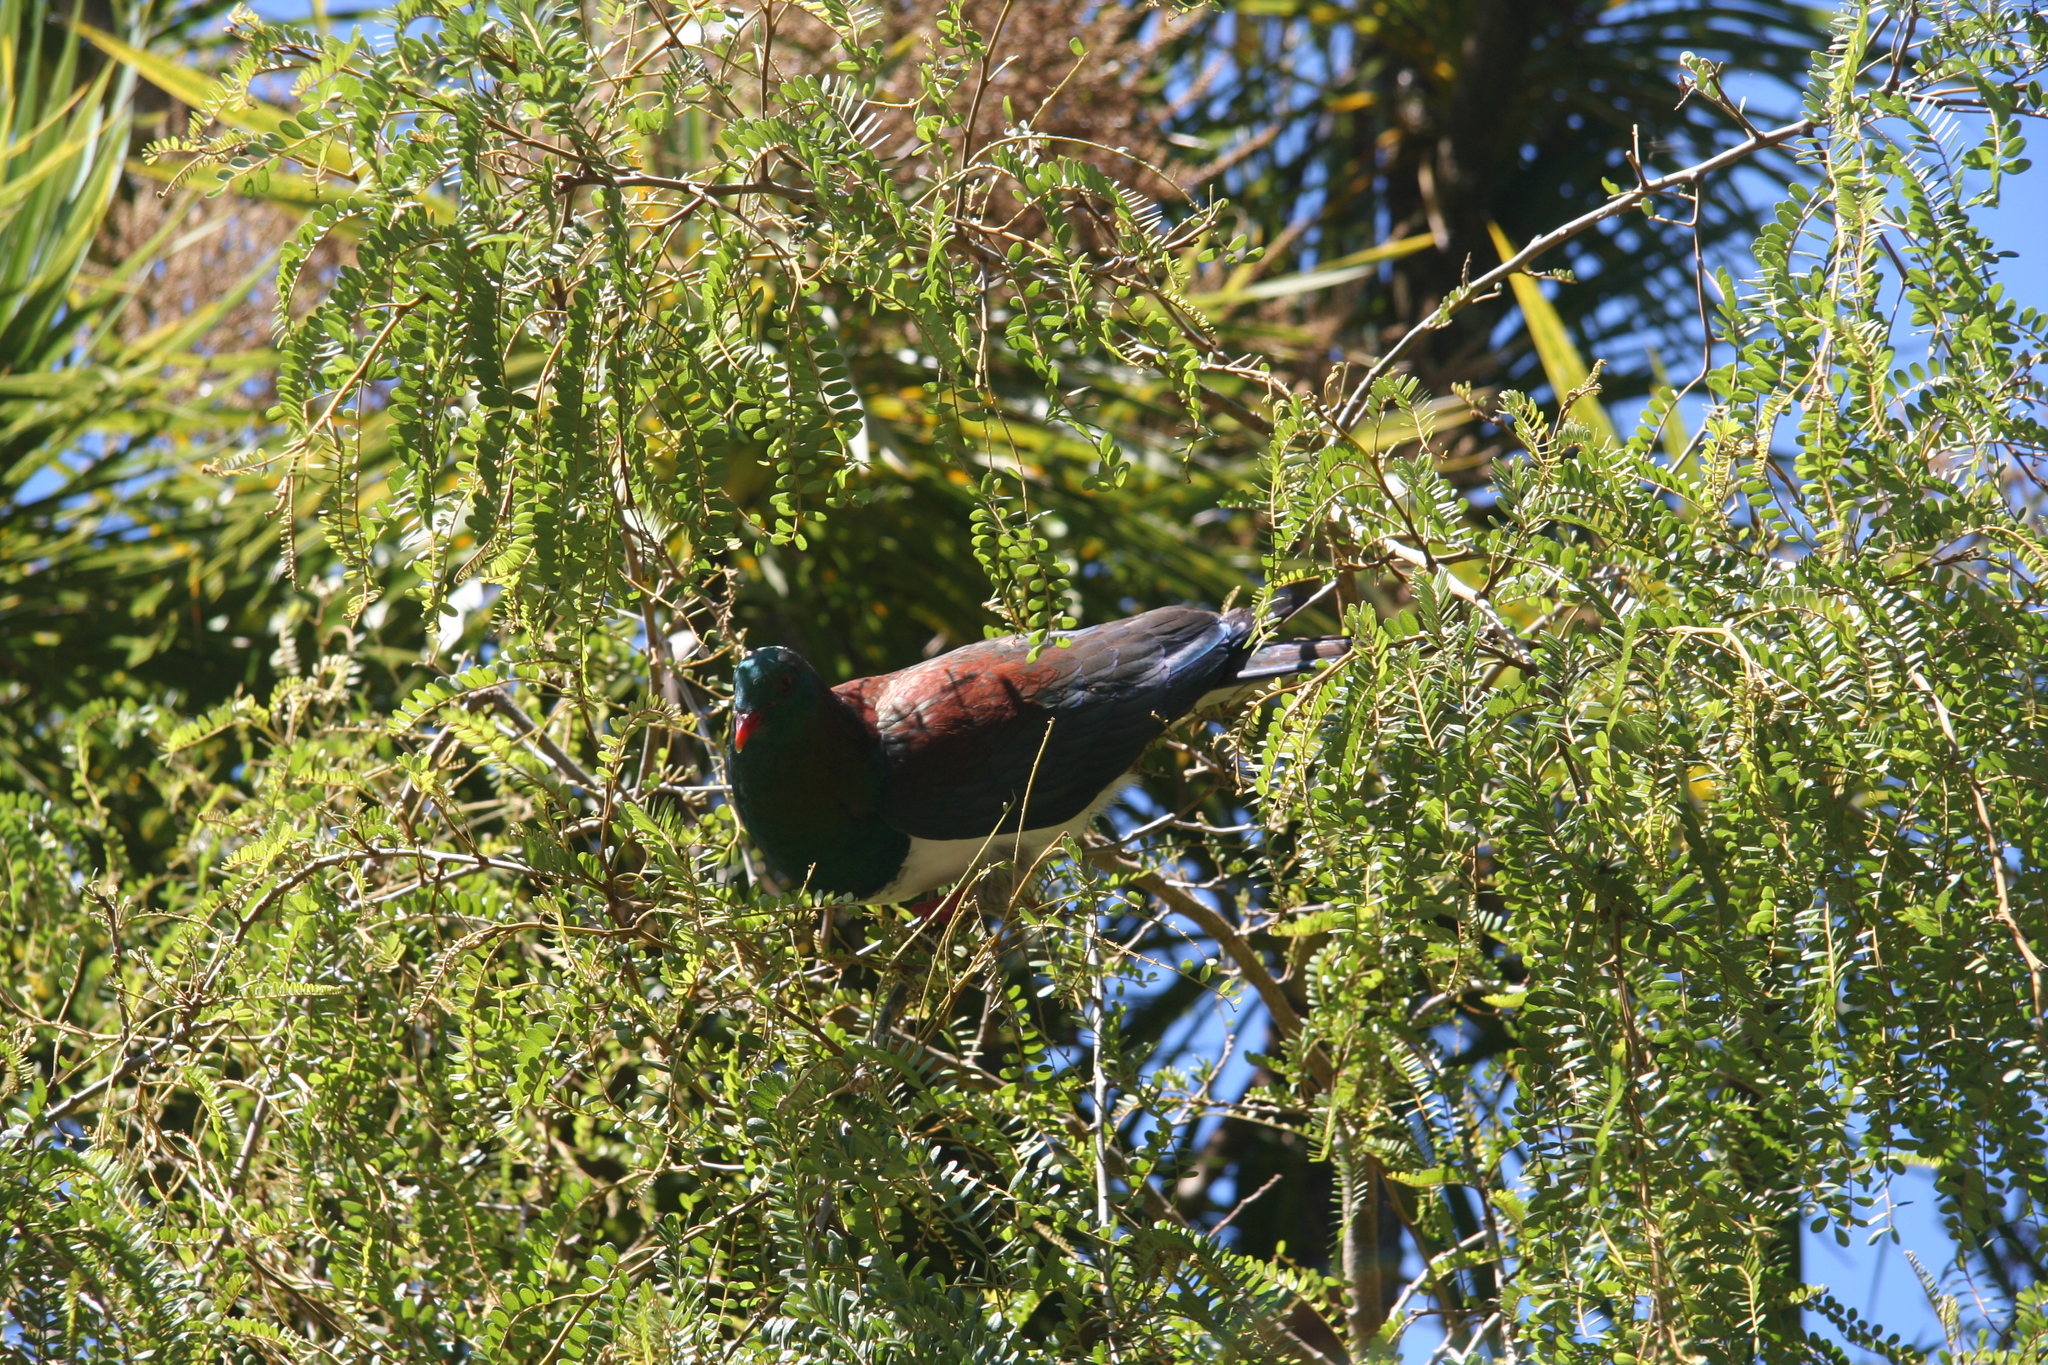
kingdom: Animalia
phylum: Chordata
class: Aves
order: Columbiformes
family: Columbidae
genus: Hemiphaga
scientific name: Hemiphaga novaeseelandiae
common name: New zealand pigeon
